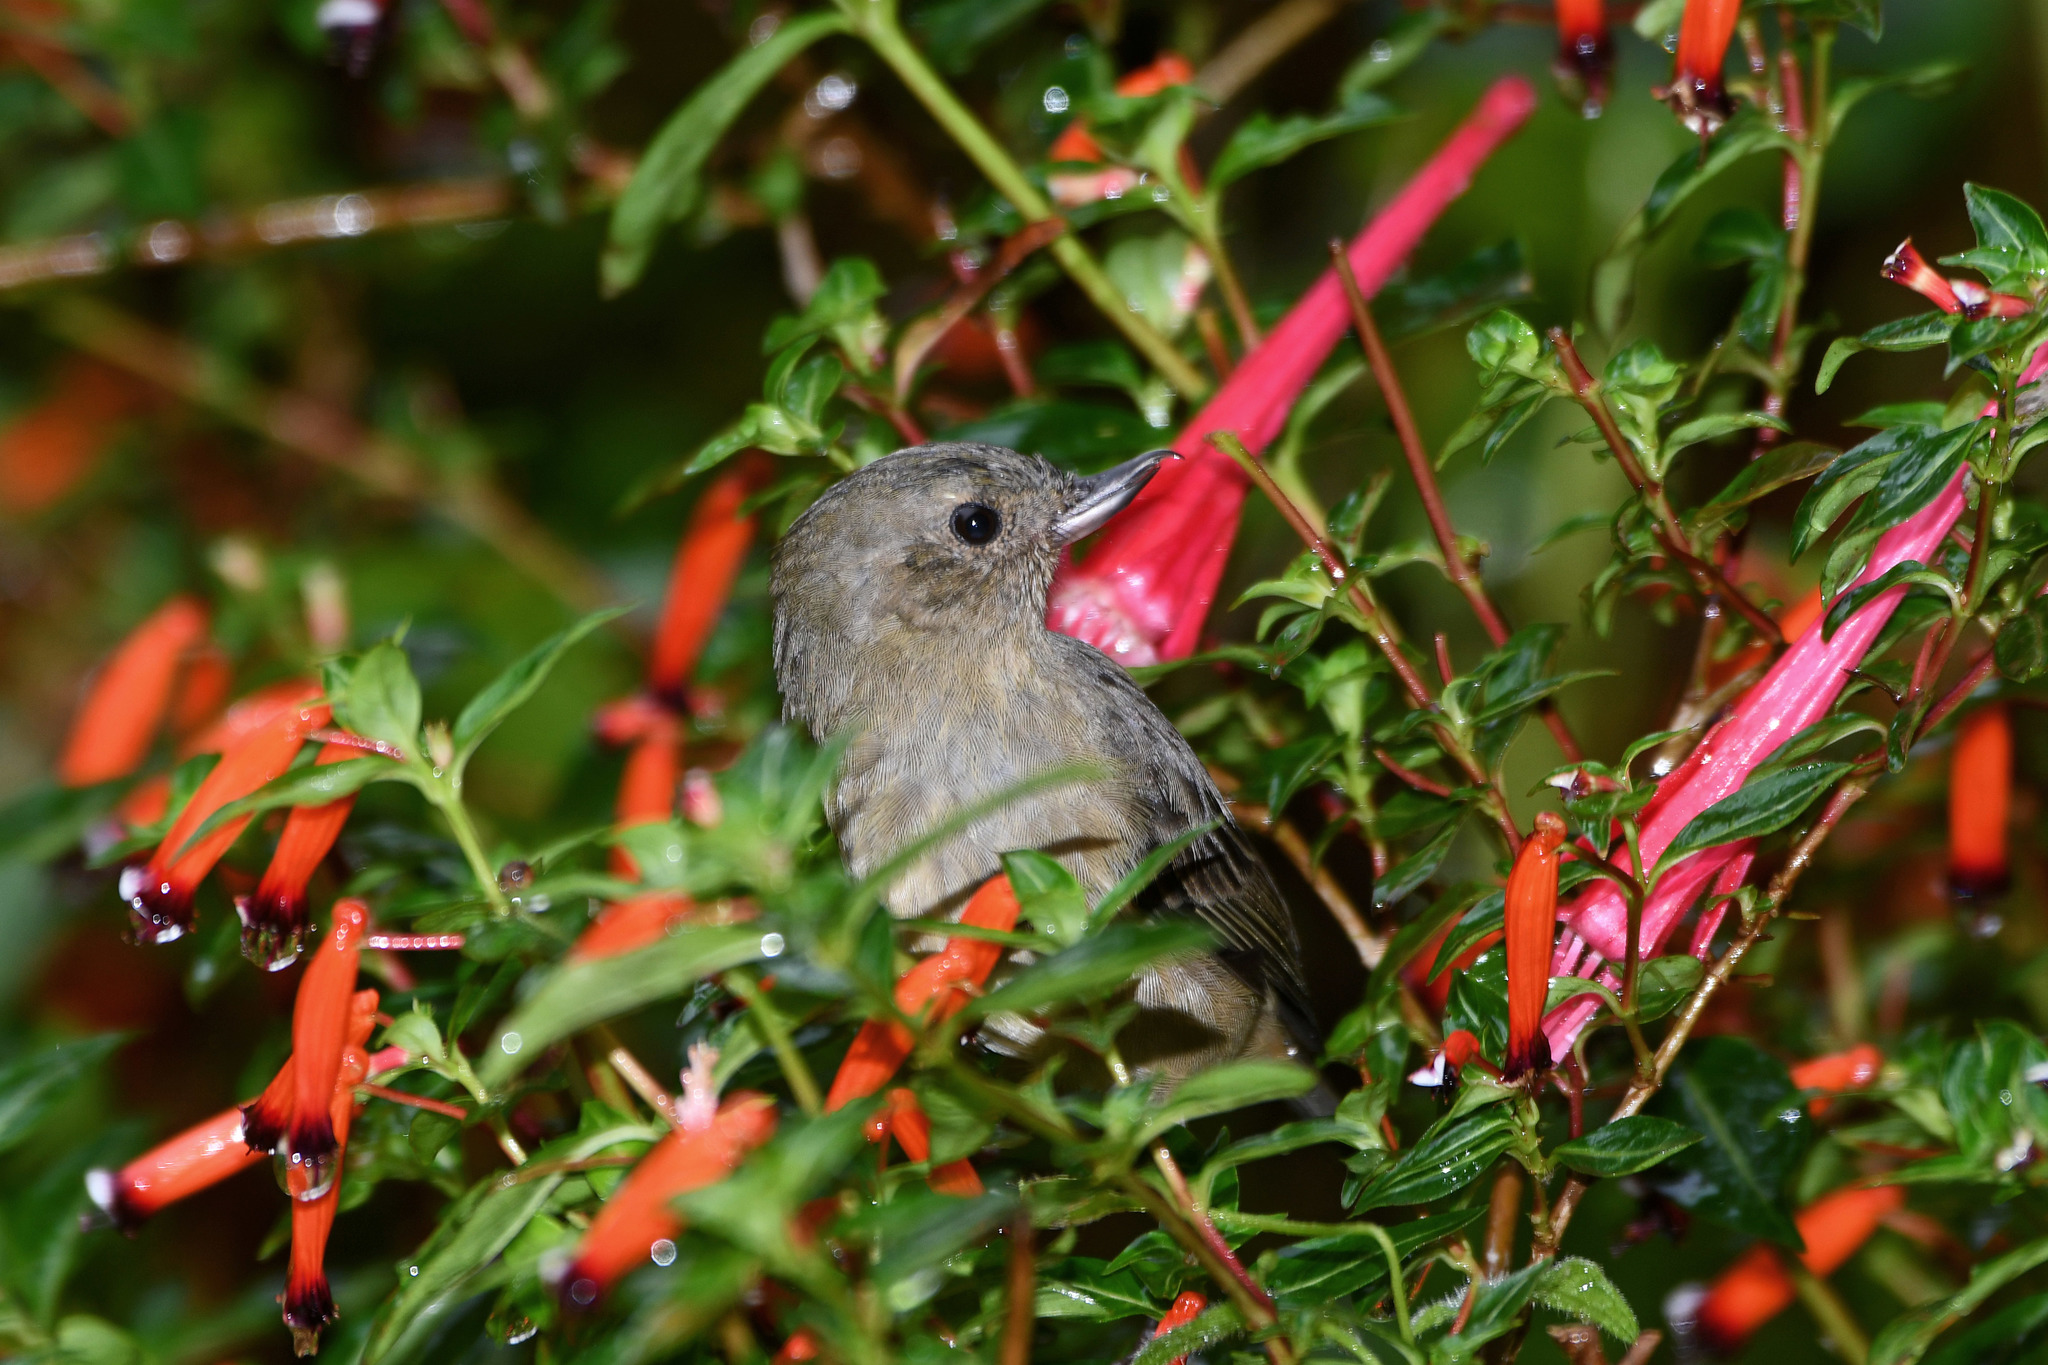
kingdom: Animalia
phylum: Chordata
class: Aves
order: Passeriformes
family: Thraupidae
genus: Diglossa
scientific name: Diglossa plumbea
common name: Slaty flowerpiercer
